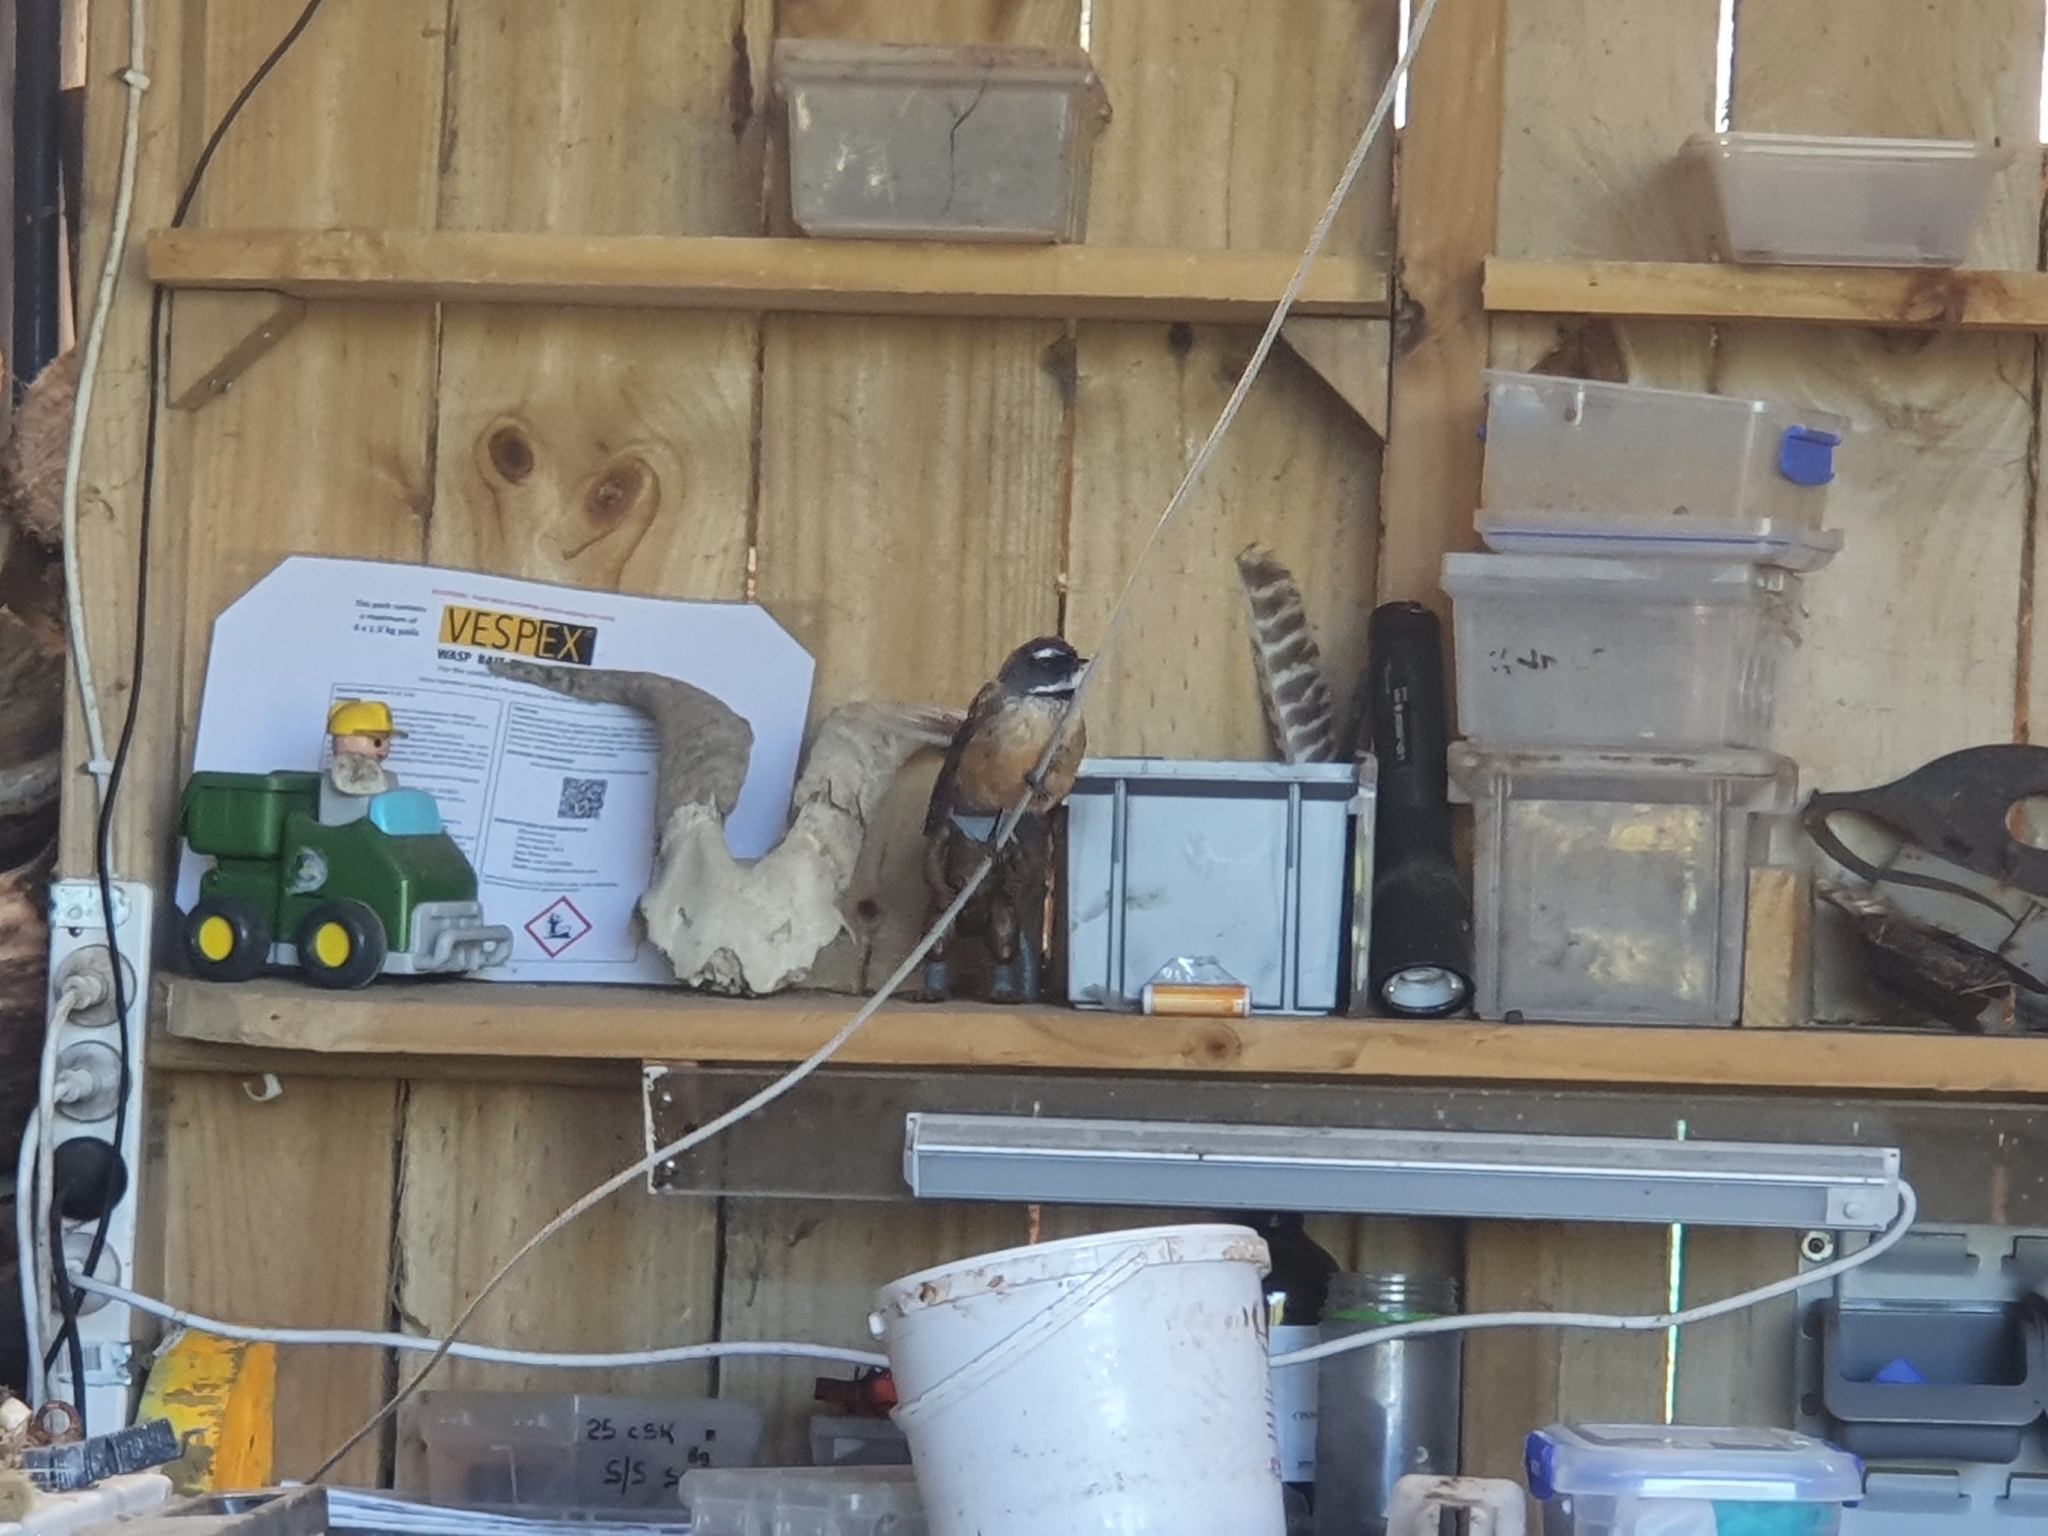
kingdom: Animalia
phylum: Chordata
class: Aves
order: Passeriformes
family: Rhipiduridae
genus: Rhipidura
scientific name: Rhipidura fuliginosa
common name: New zealand fantail
